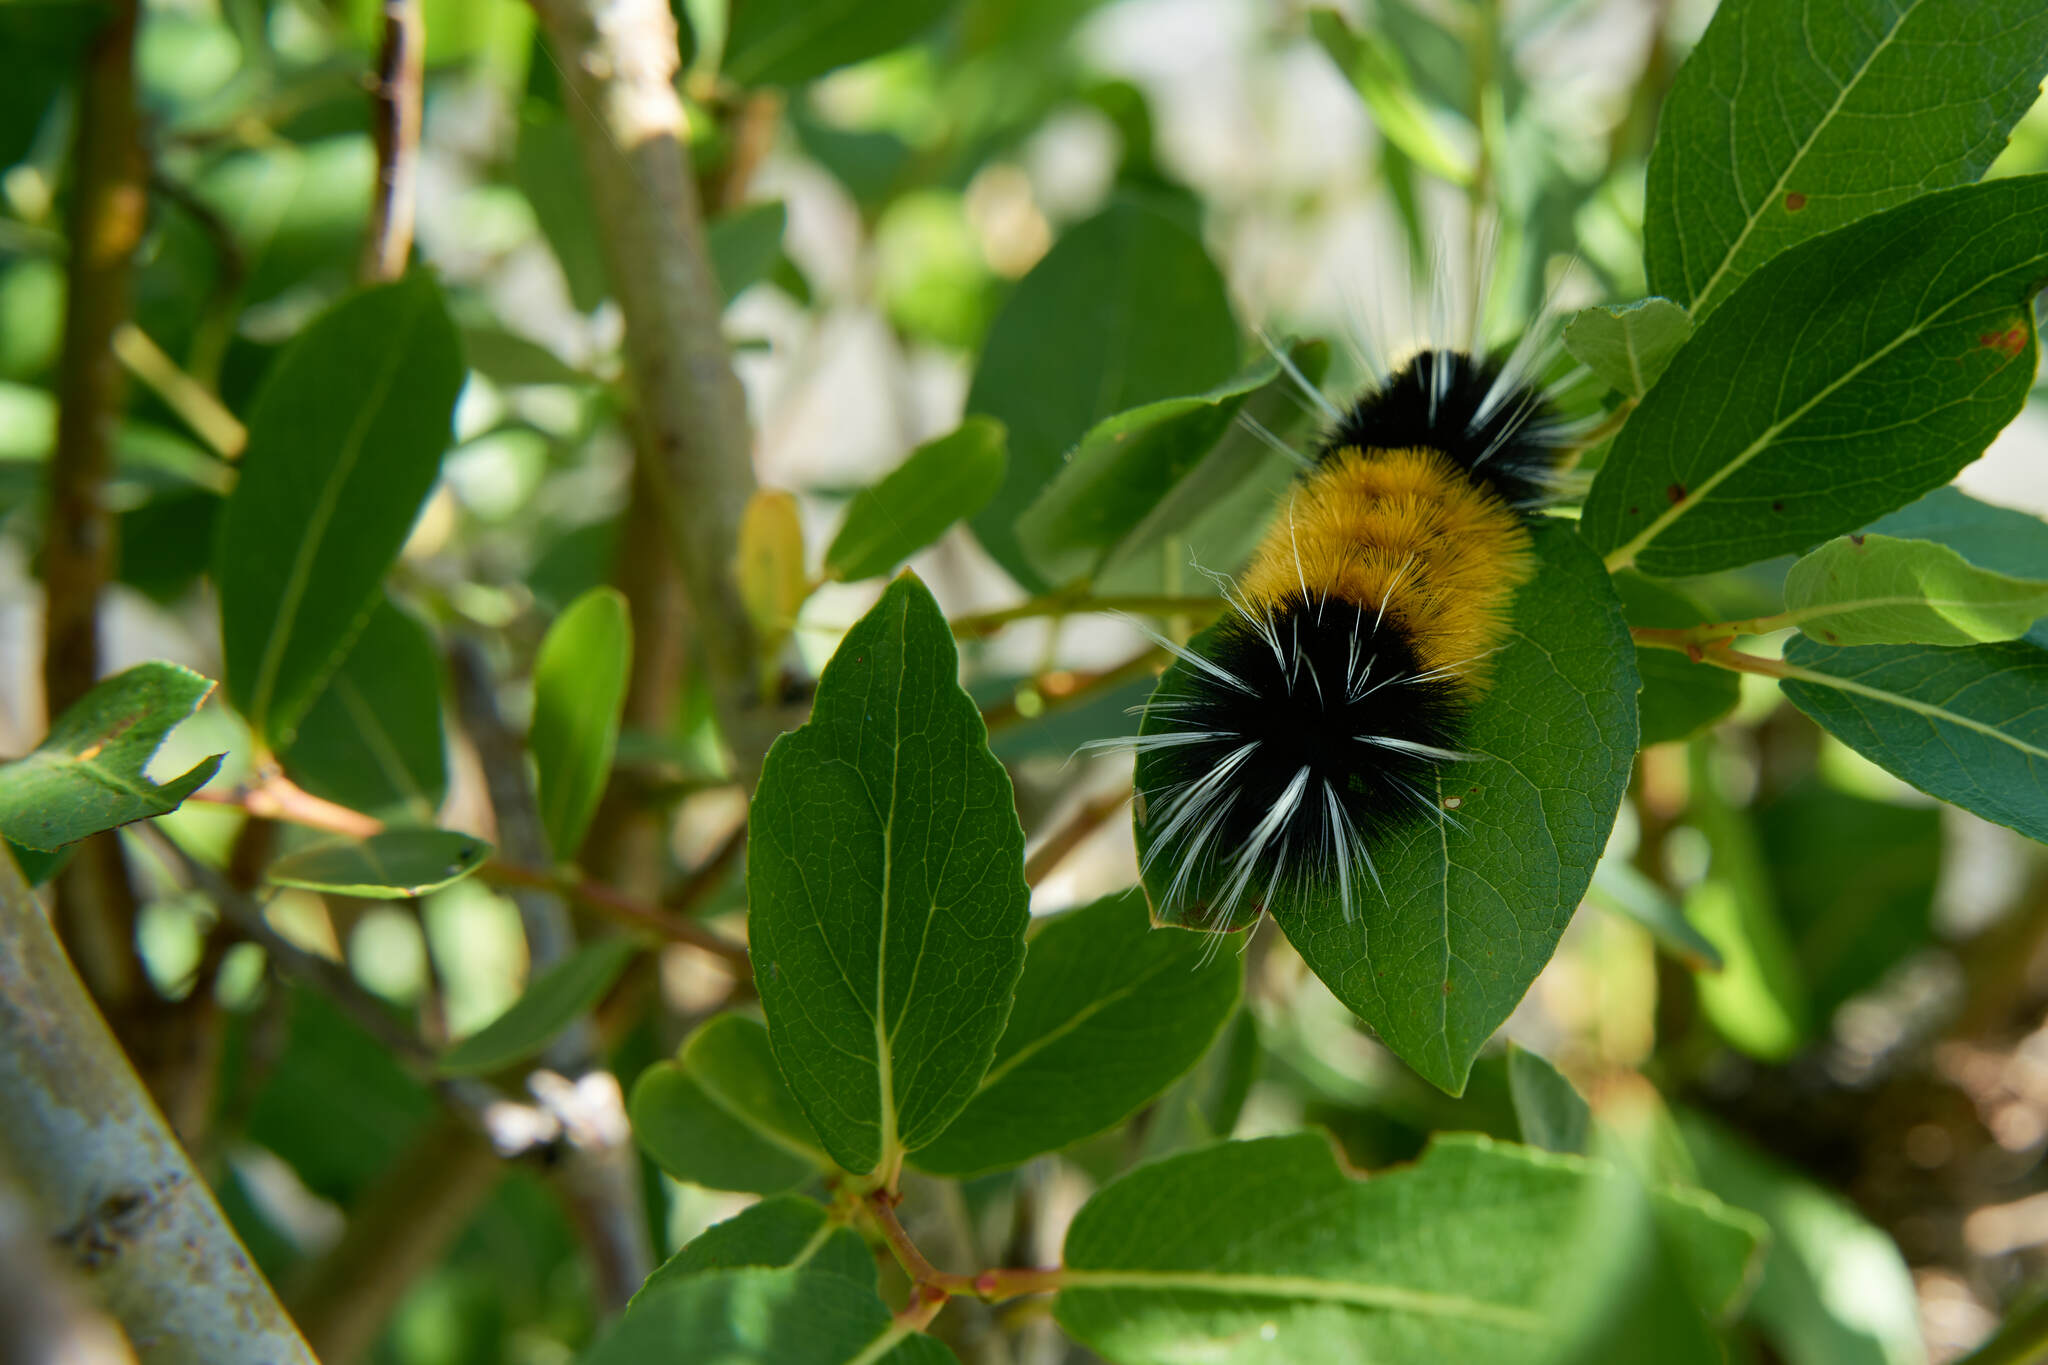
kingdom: Animalia
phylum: Arthropoda
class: Insecta
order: Lepidoptera
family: Erebidae
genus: Lophocampa
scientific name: Lophocampa maculata
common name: Spotted tussock moth
